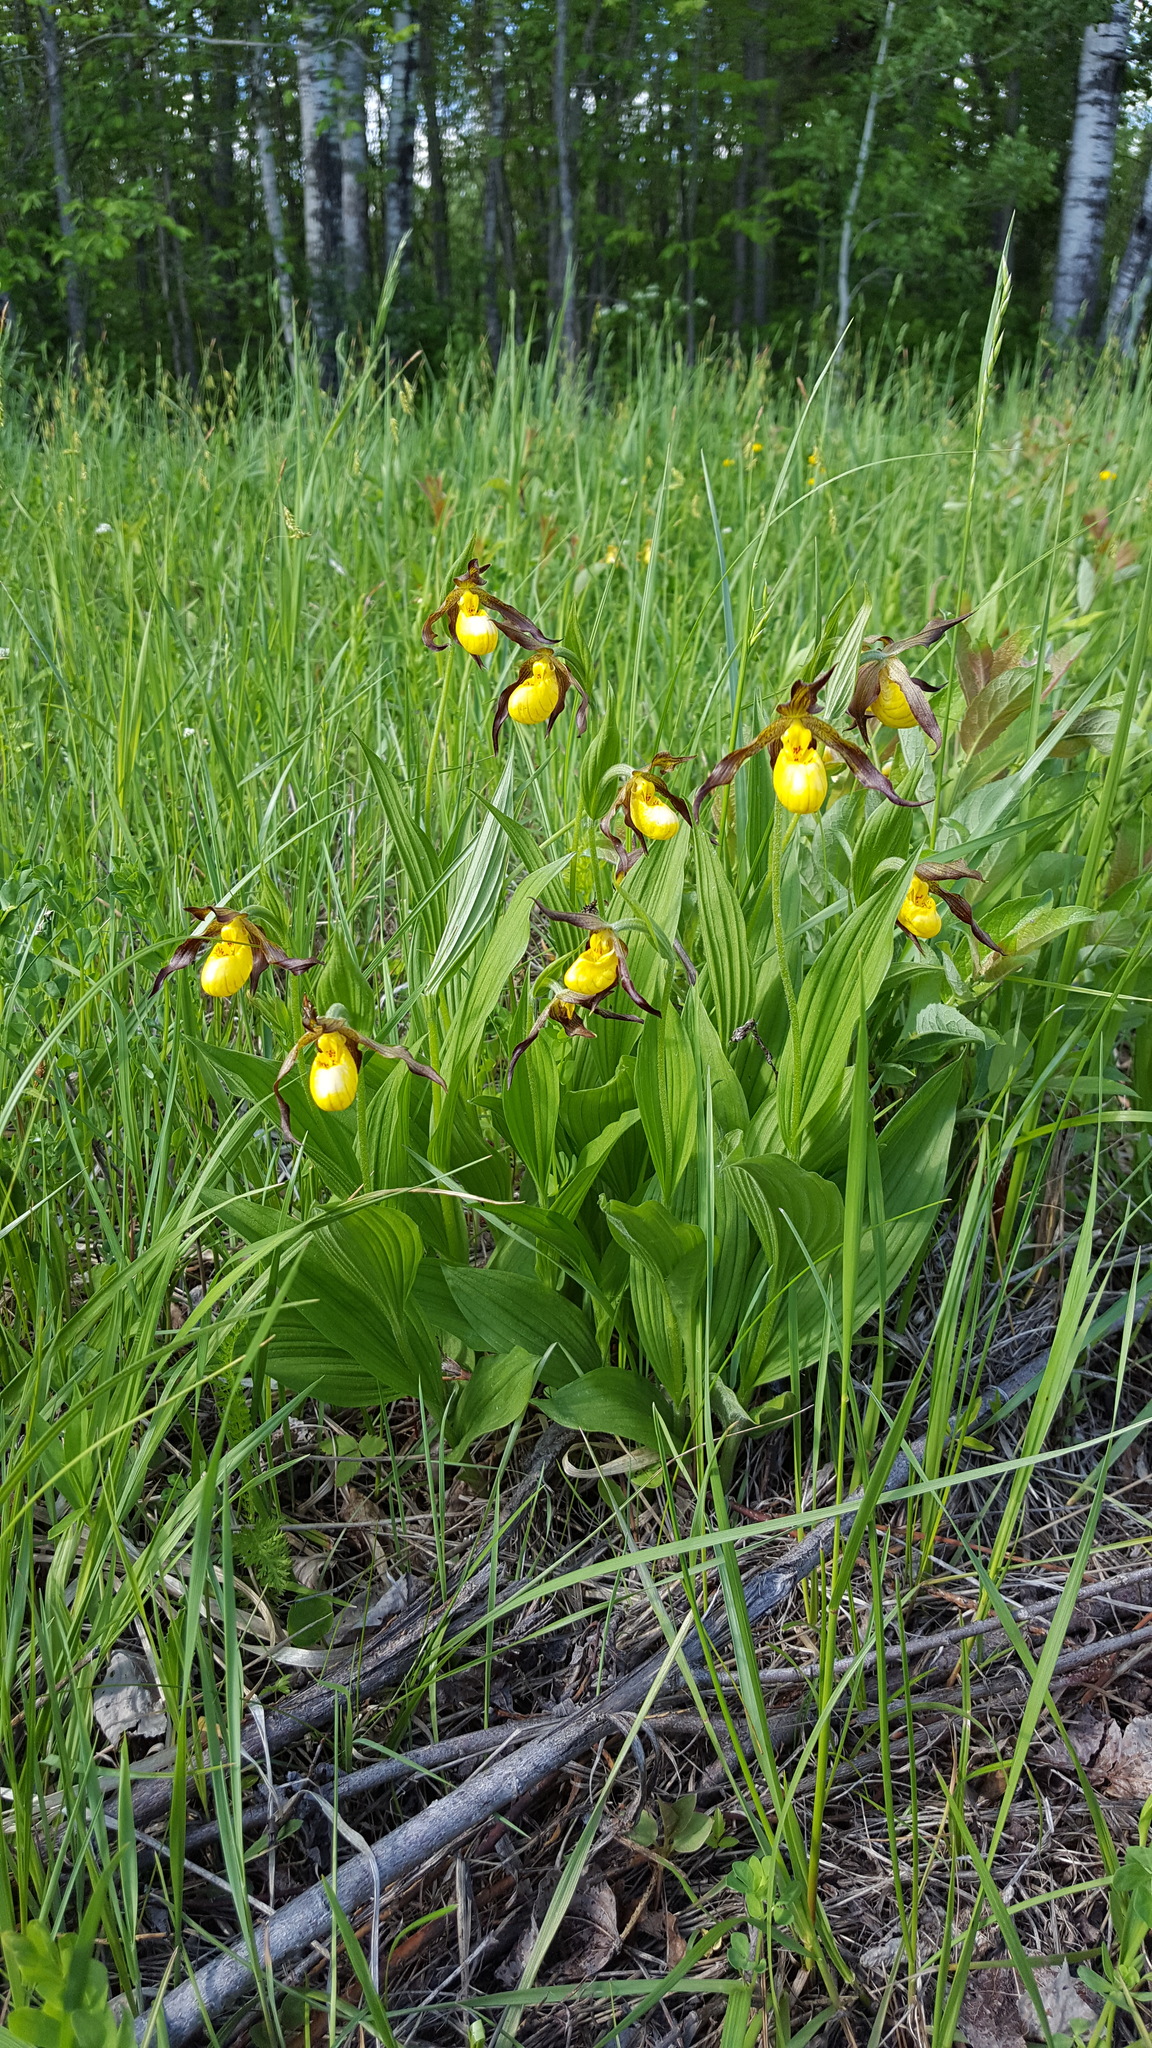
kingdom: Plantae
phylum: Tracheophyta
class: Liliopsida
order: Asparagales
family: Orchidaceae
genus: Cypripedium
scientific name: Cypripedium parviflorum
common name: American yellow lady's-slipper
